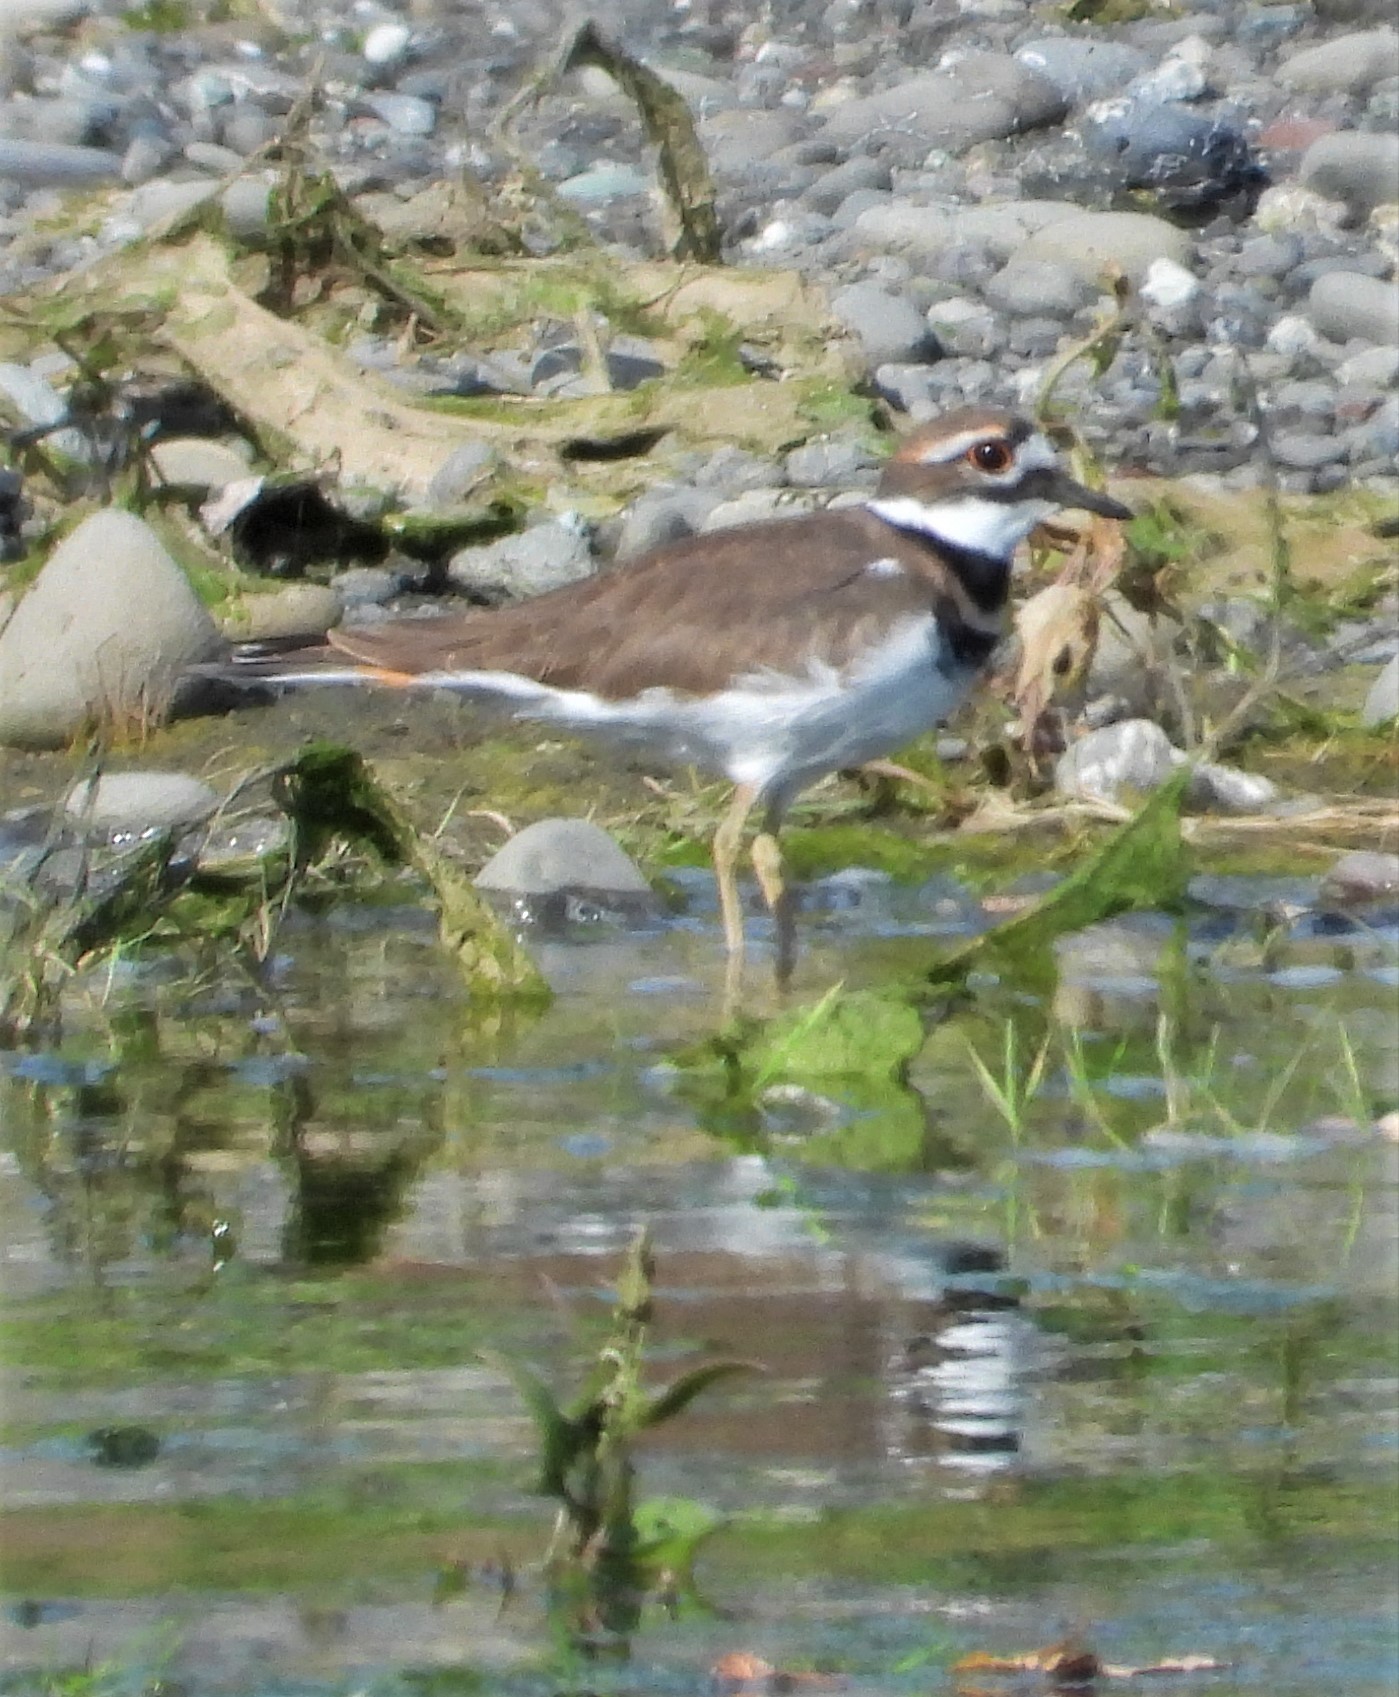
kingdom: Animalia
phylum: Chordata
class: Aves
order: Charadriiformes
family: Charadriidae
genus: Charadrius
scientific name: Charadrius vociferus
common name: Killdeer
